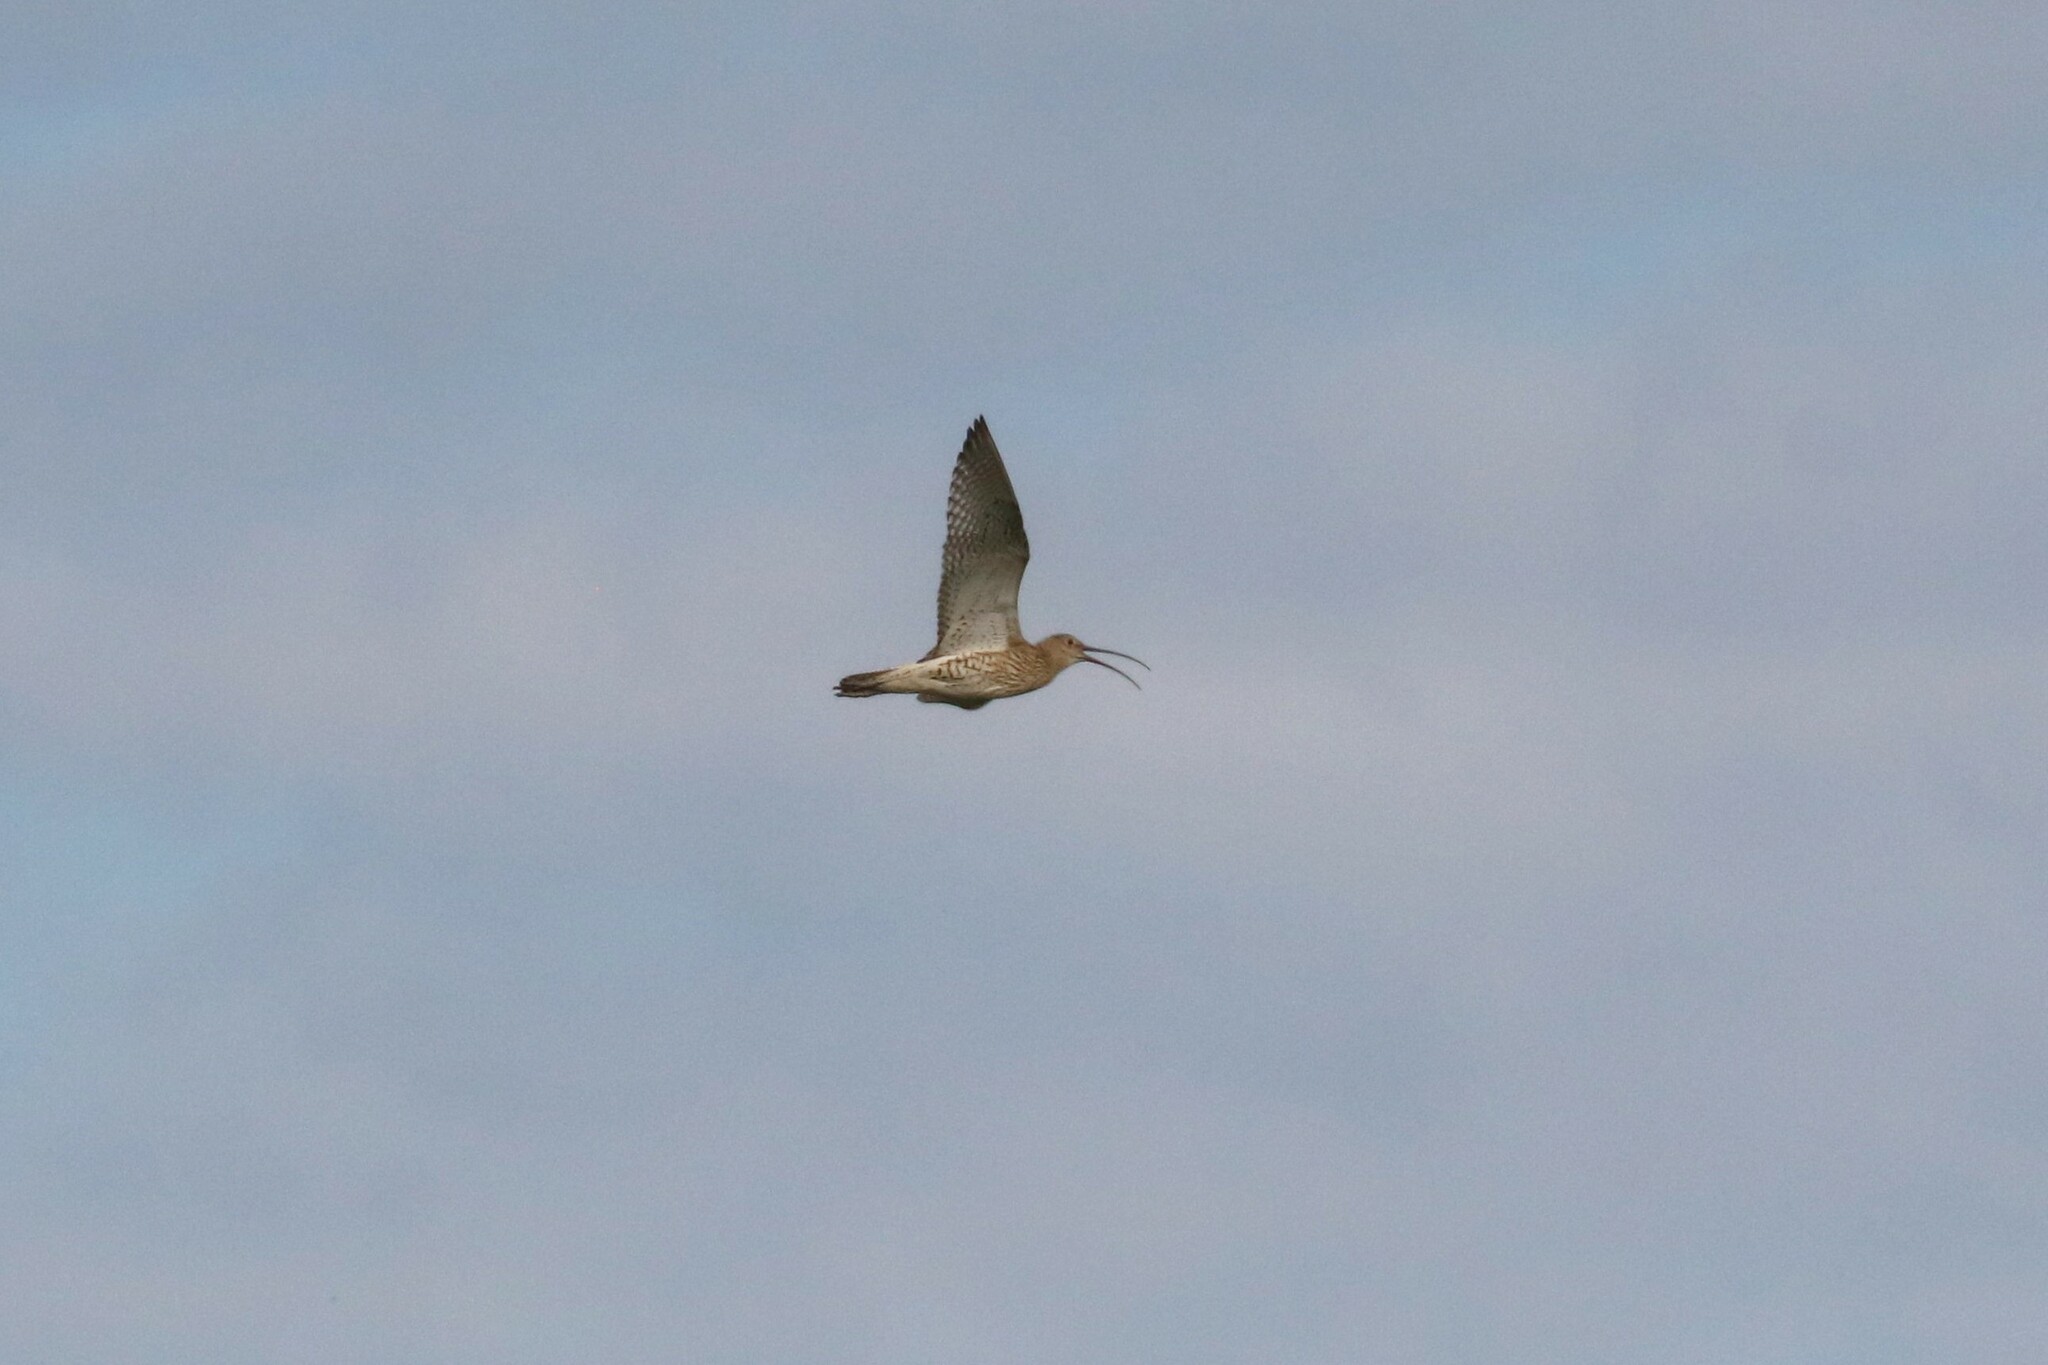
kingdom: Animalia
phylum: Chordata
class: Aves
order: Charadriiformes
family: Scolopacidae
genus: Numenius
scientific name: Numenius arquata
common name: Eurasian curlew
